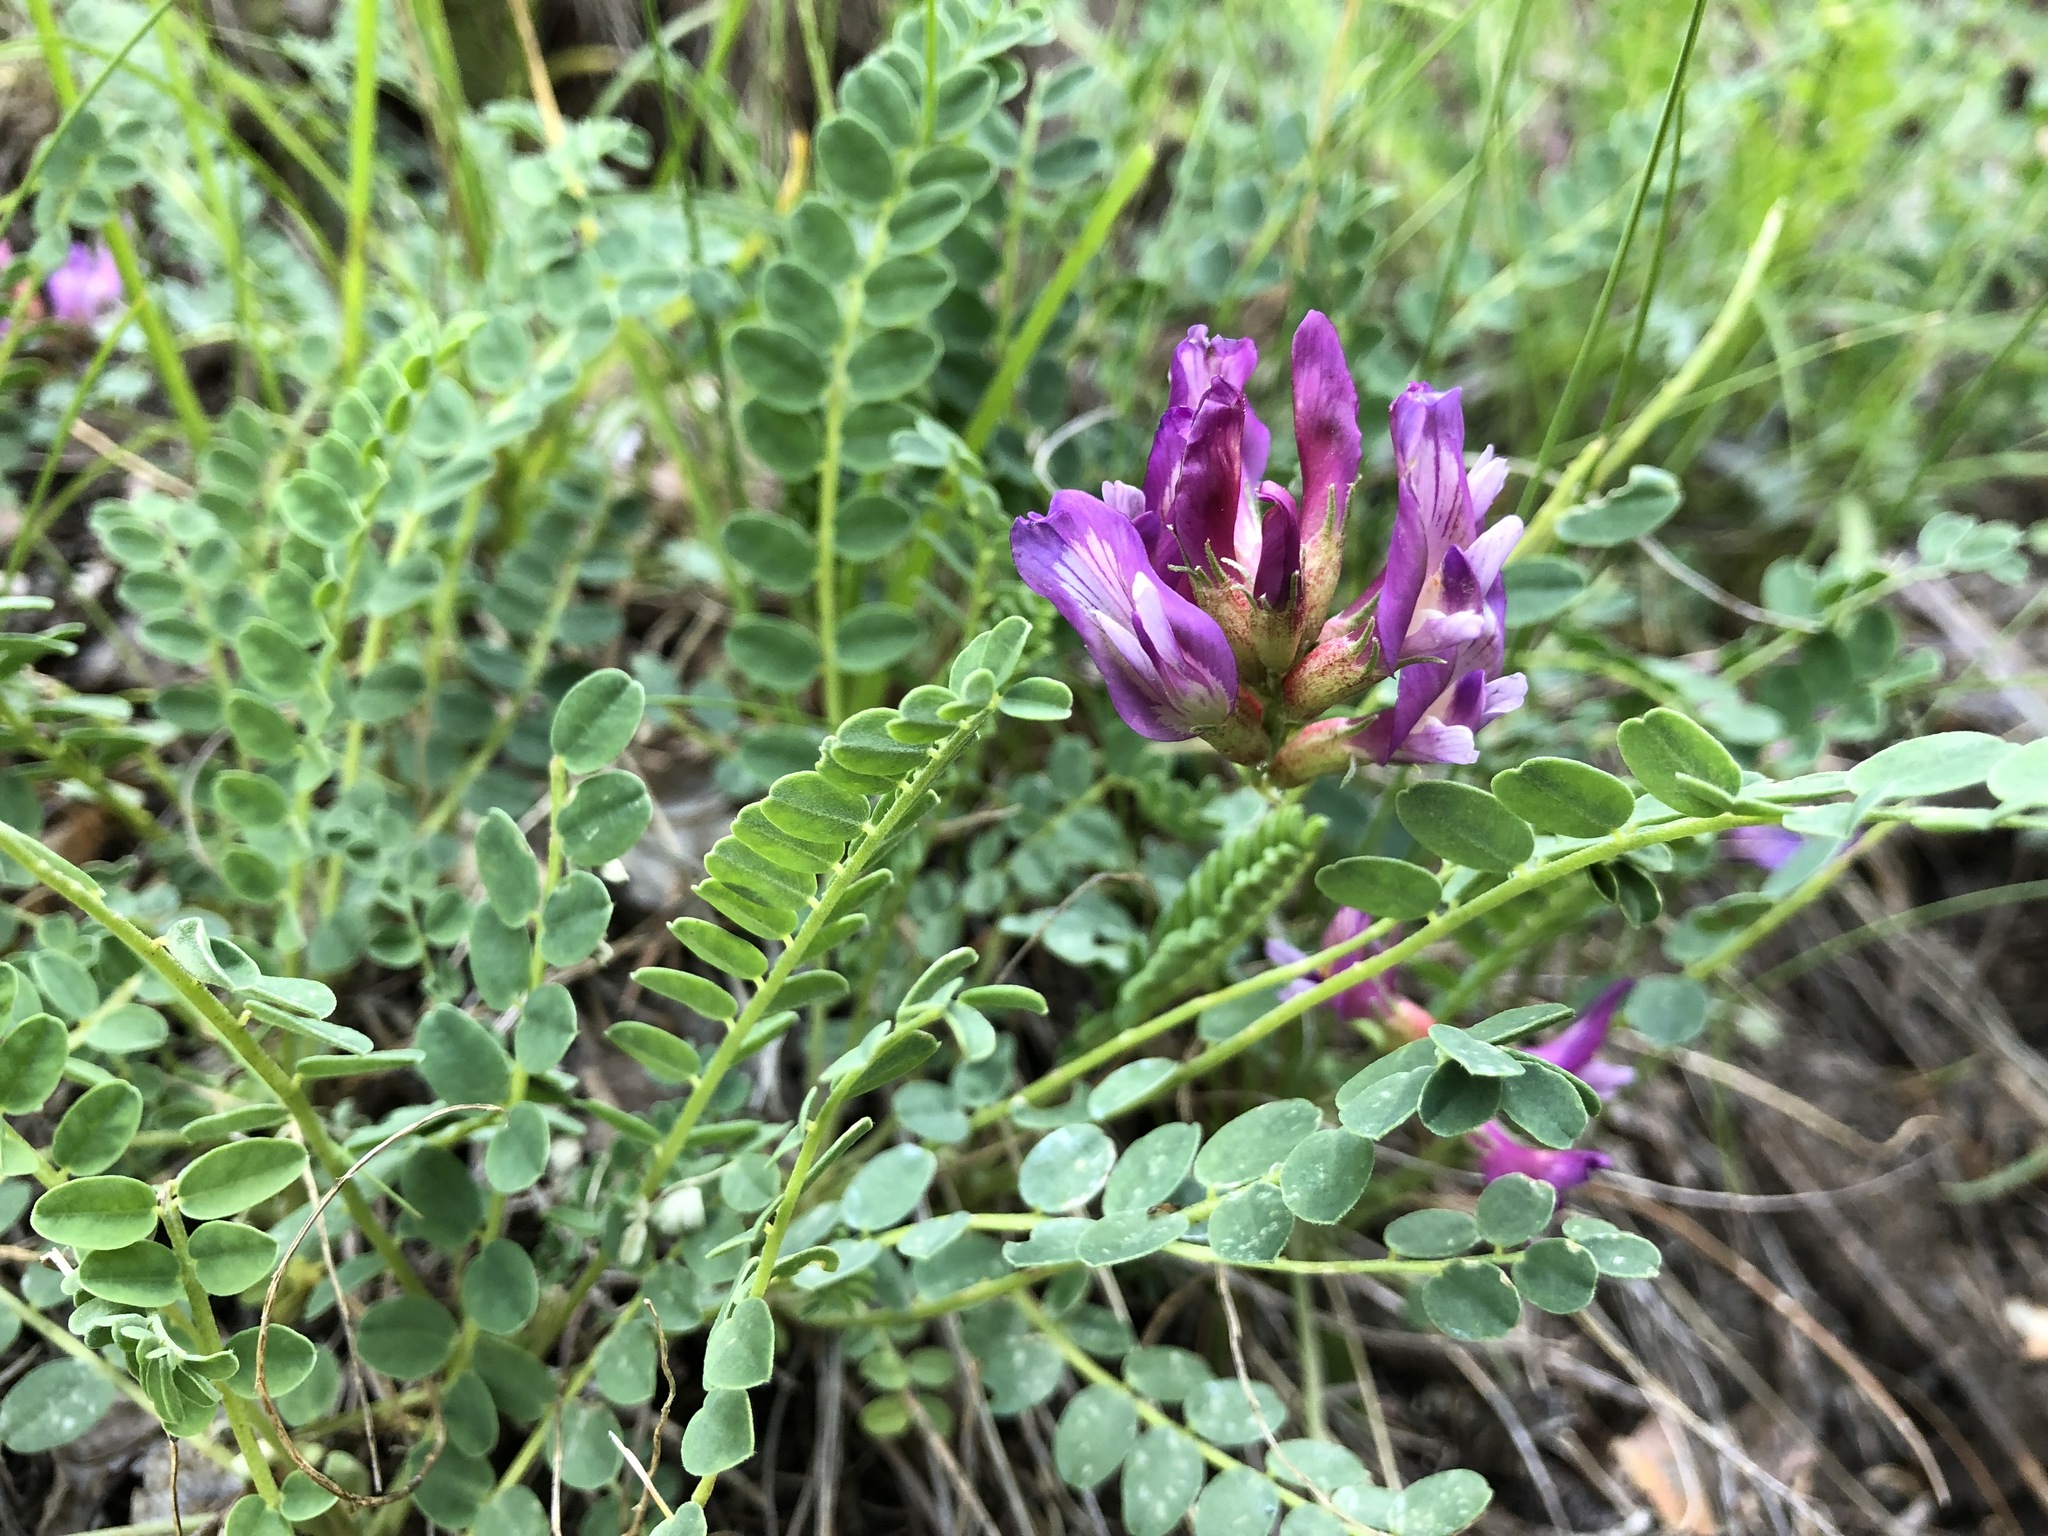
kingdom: Plantae
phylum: Tracheophyta
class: Magnoliopsida
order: Fabales
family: Fabaceae
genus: Astragalus
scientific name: Astragalus monspessulanus
